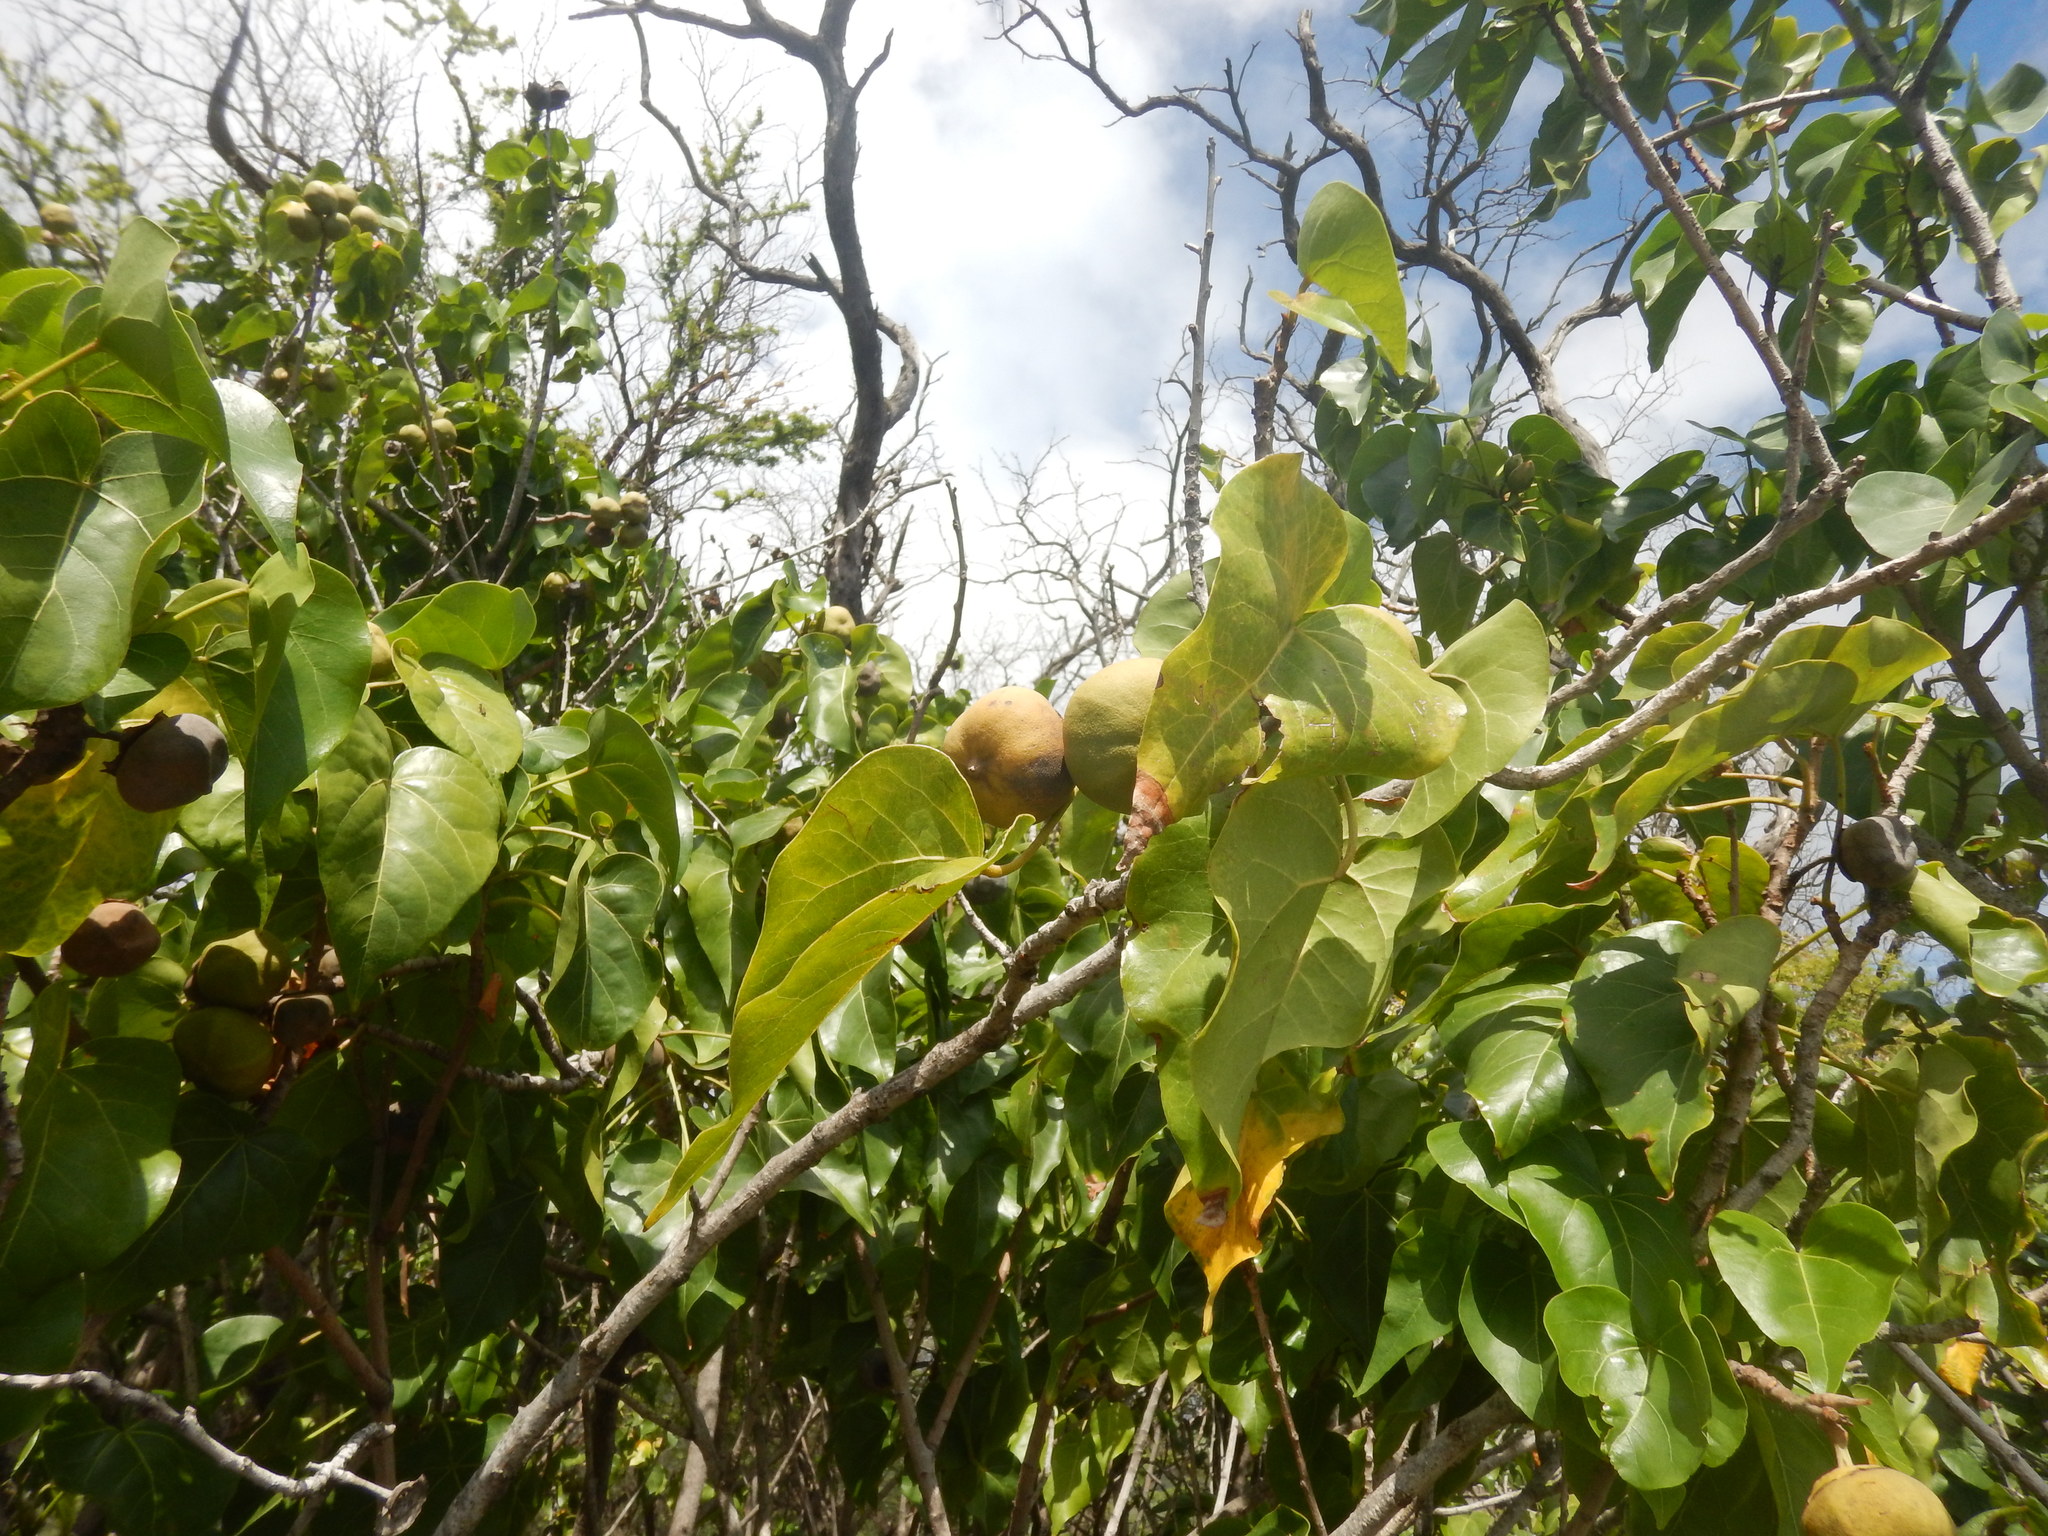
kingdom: Plantae
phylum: Tracheophyta
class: Magnoliopsida
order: Malvales
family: Malvaceae
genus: Thespesia
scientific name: Thespesia populnea
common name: Seaside mahoe
